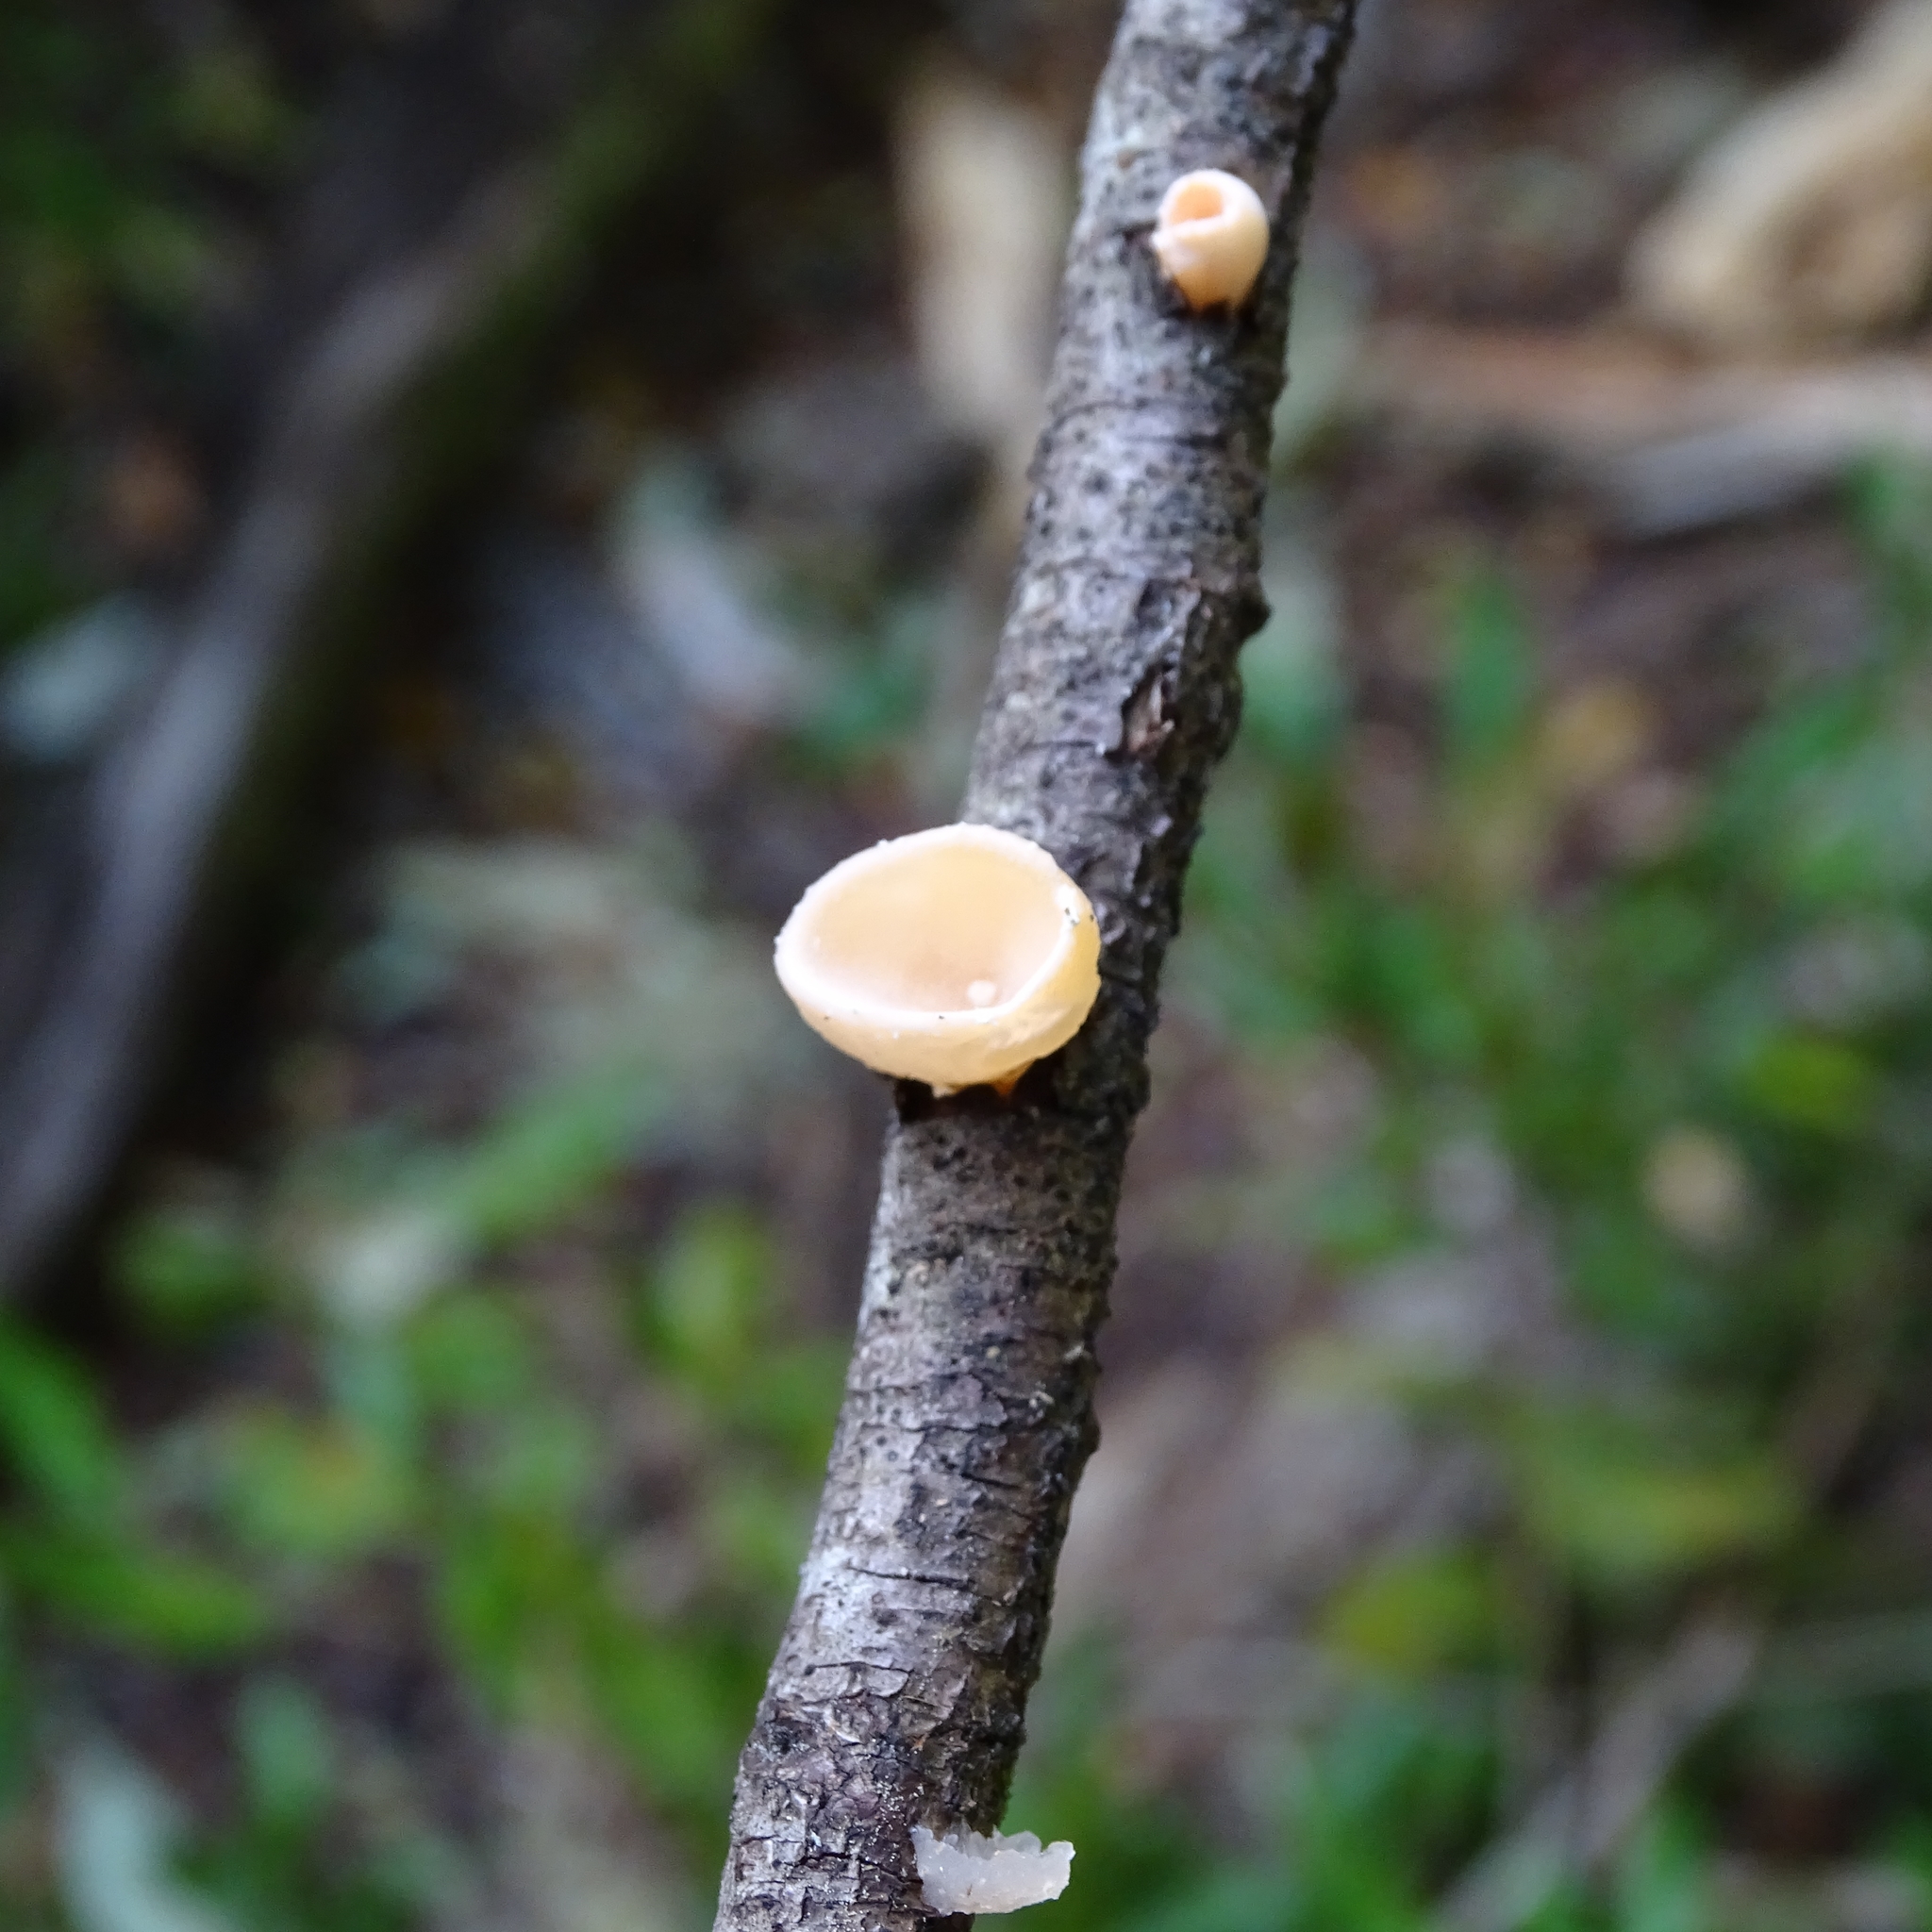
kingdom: Fungi
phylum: Basidiomycota
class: Agaricomycetes
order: Russulales
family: Stereaceae
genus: Aleurodiscus
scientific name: Aleurodiscus vitellinus
